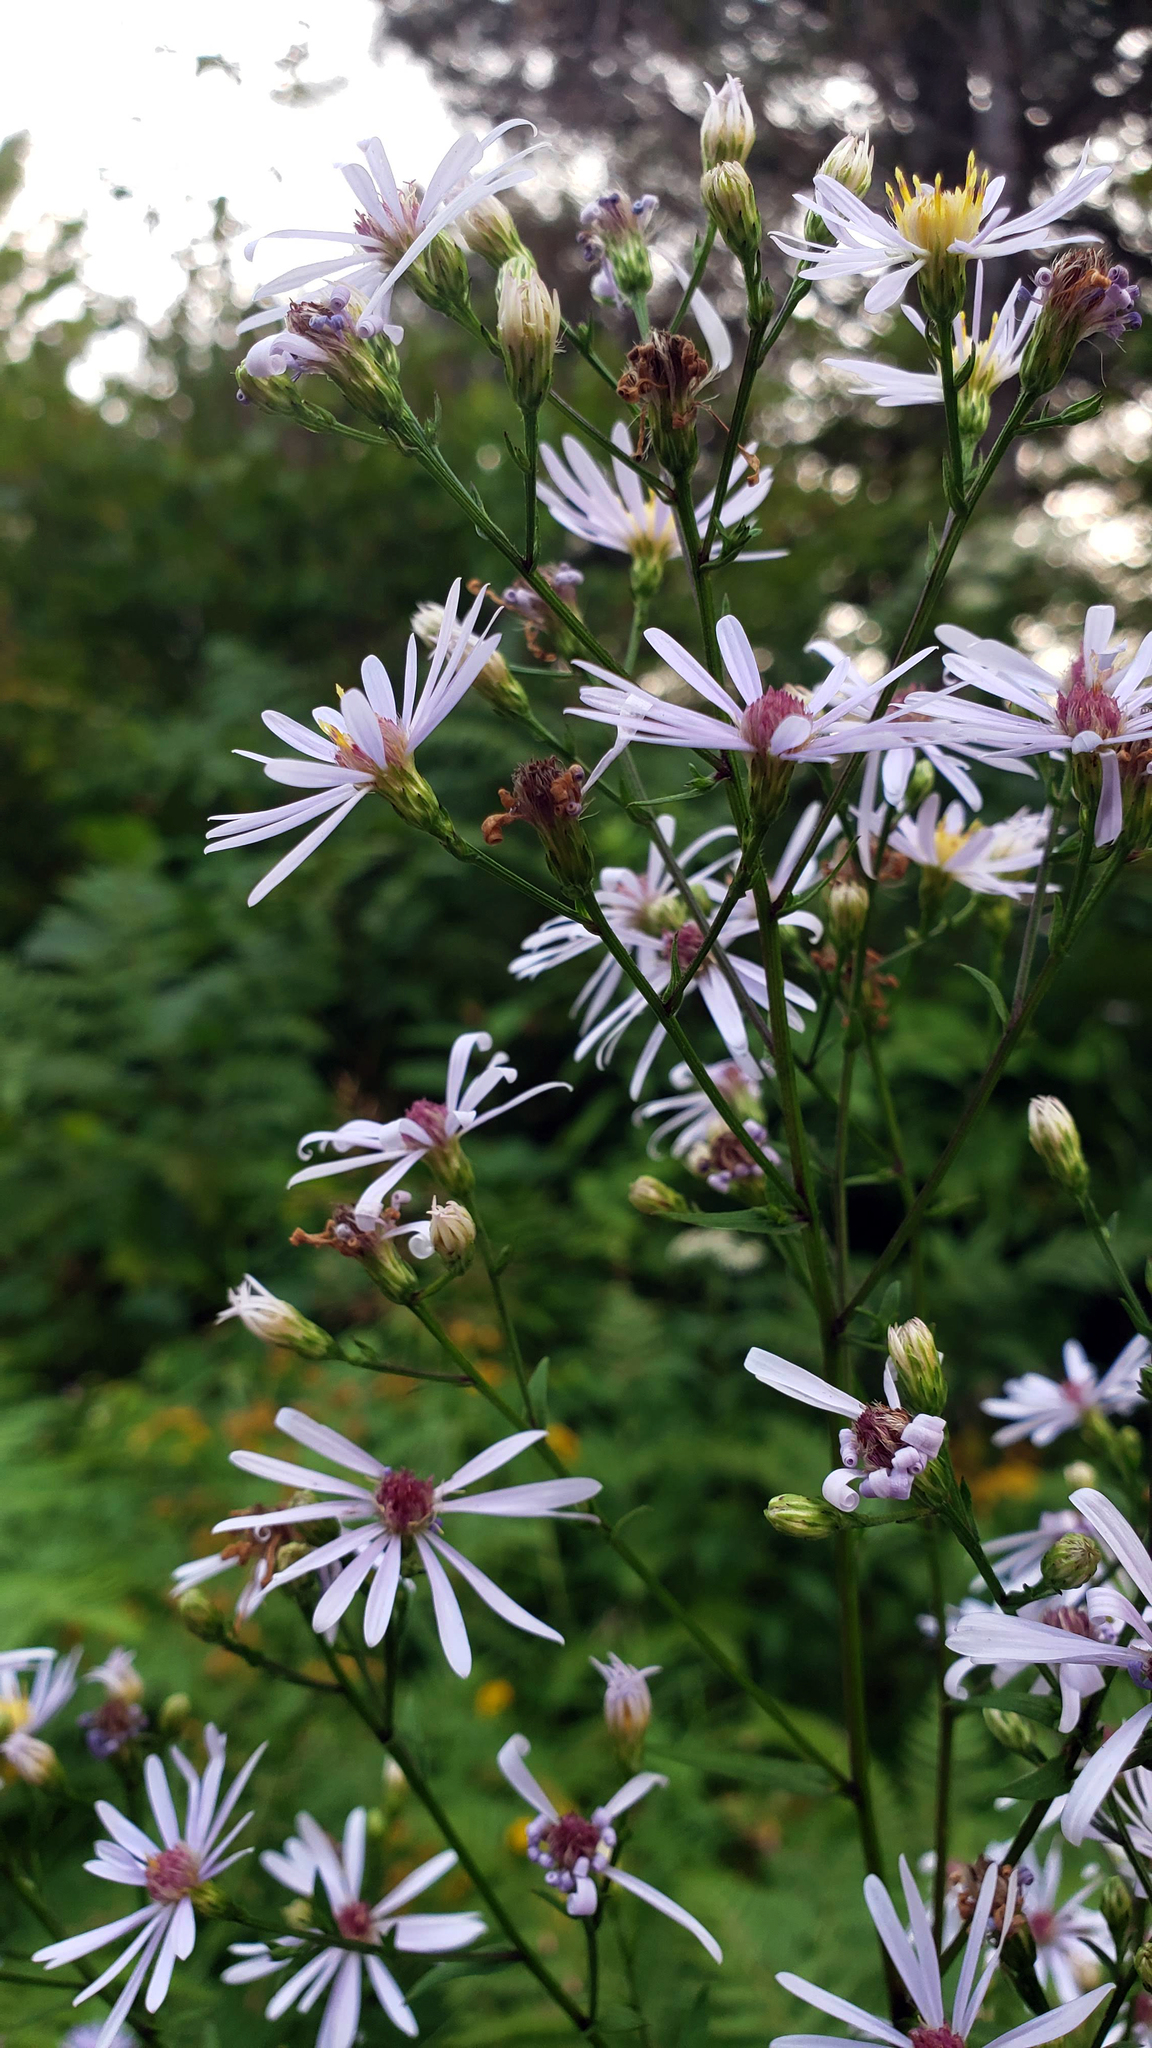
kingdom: Plantae
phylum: Tracheophyta
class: Magnoliopsida
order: Asterales
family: Asteraceae
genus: Symphyotrichum
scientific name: Symphyotrichum ciliolatum
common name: Fringed blue aster
